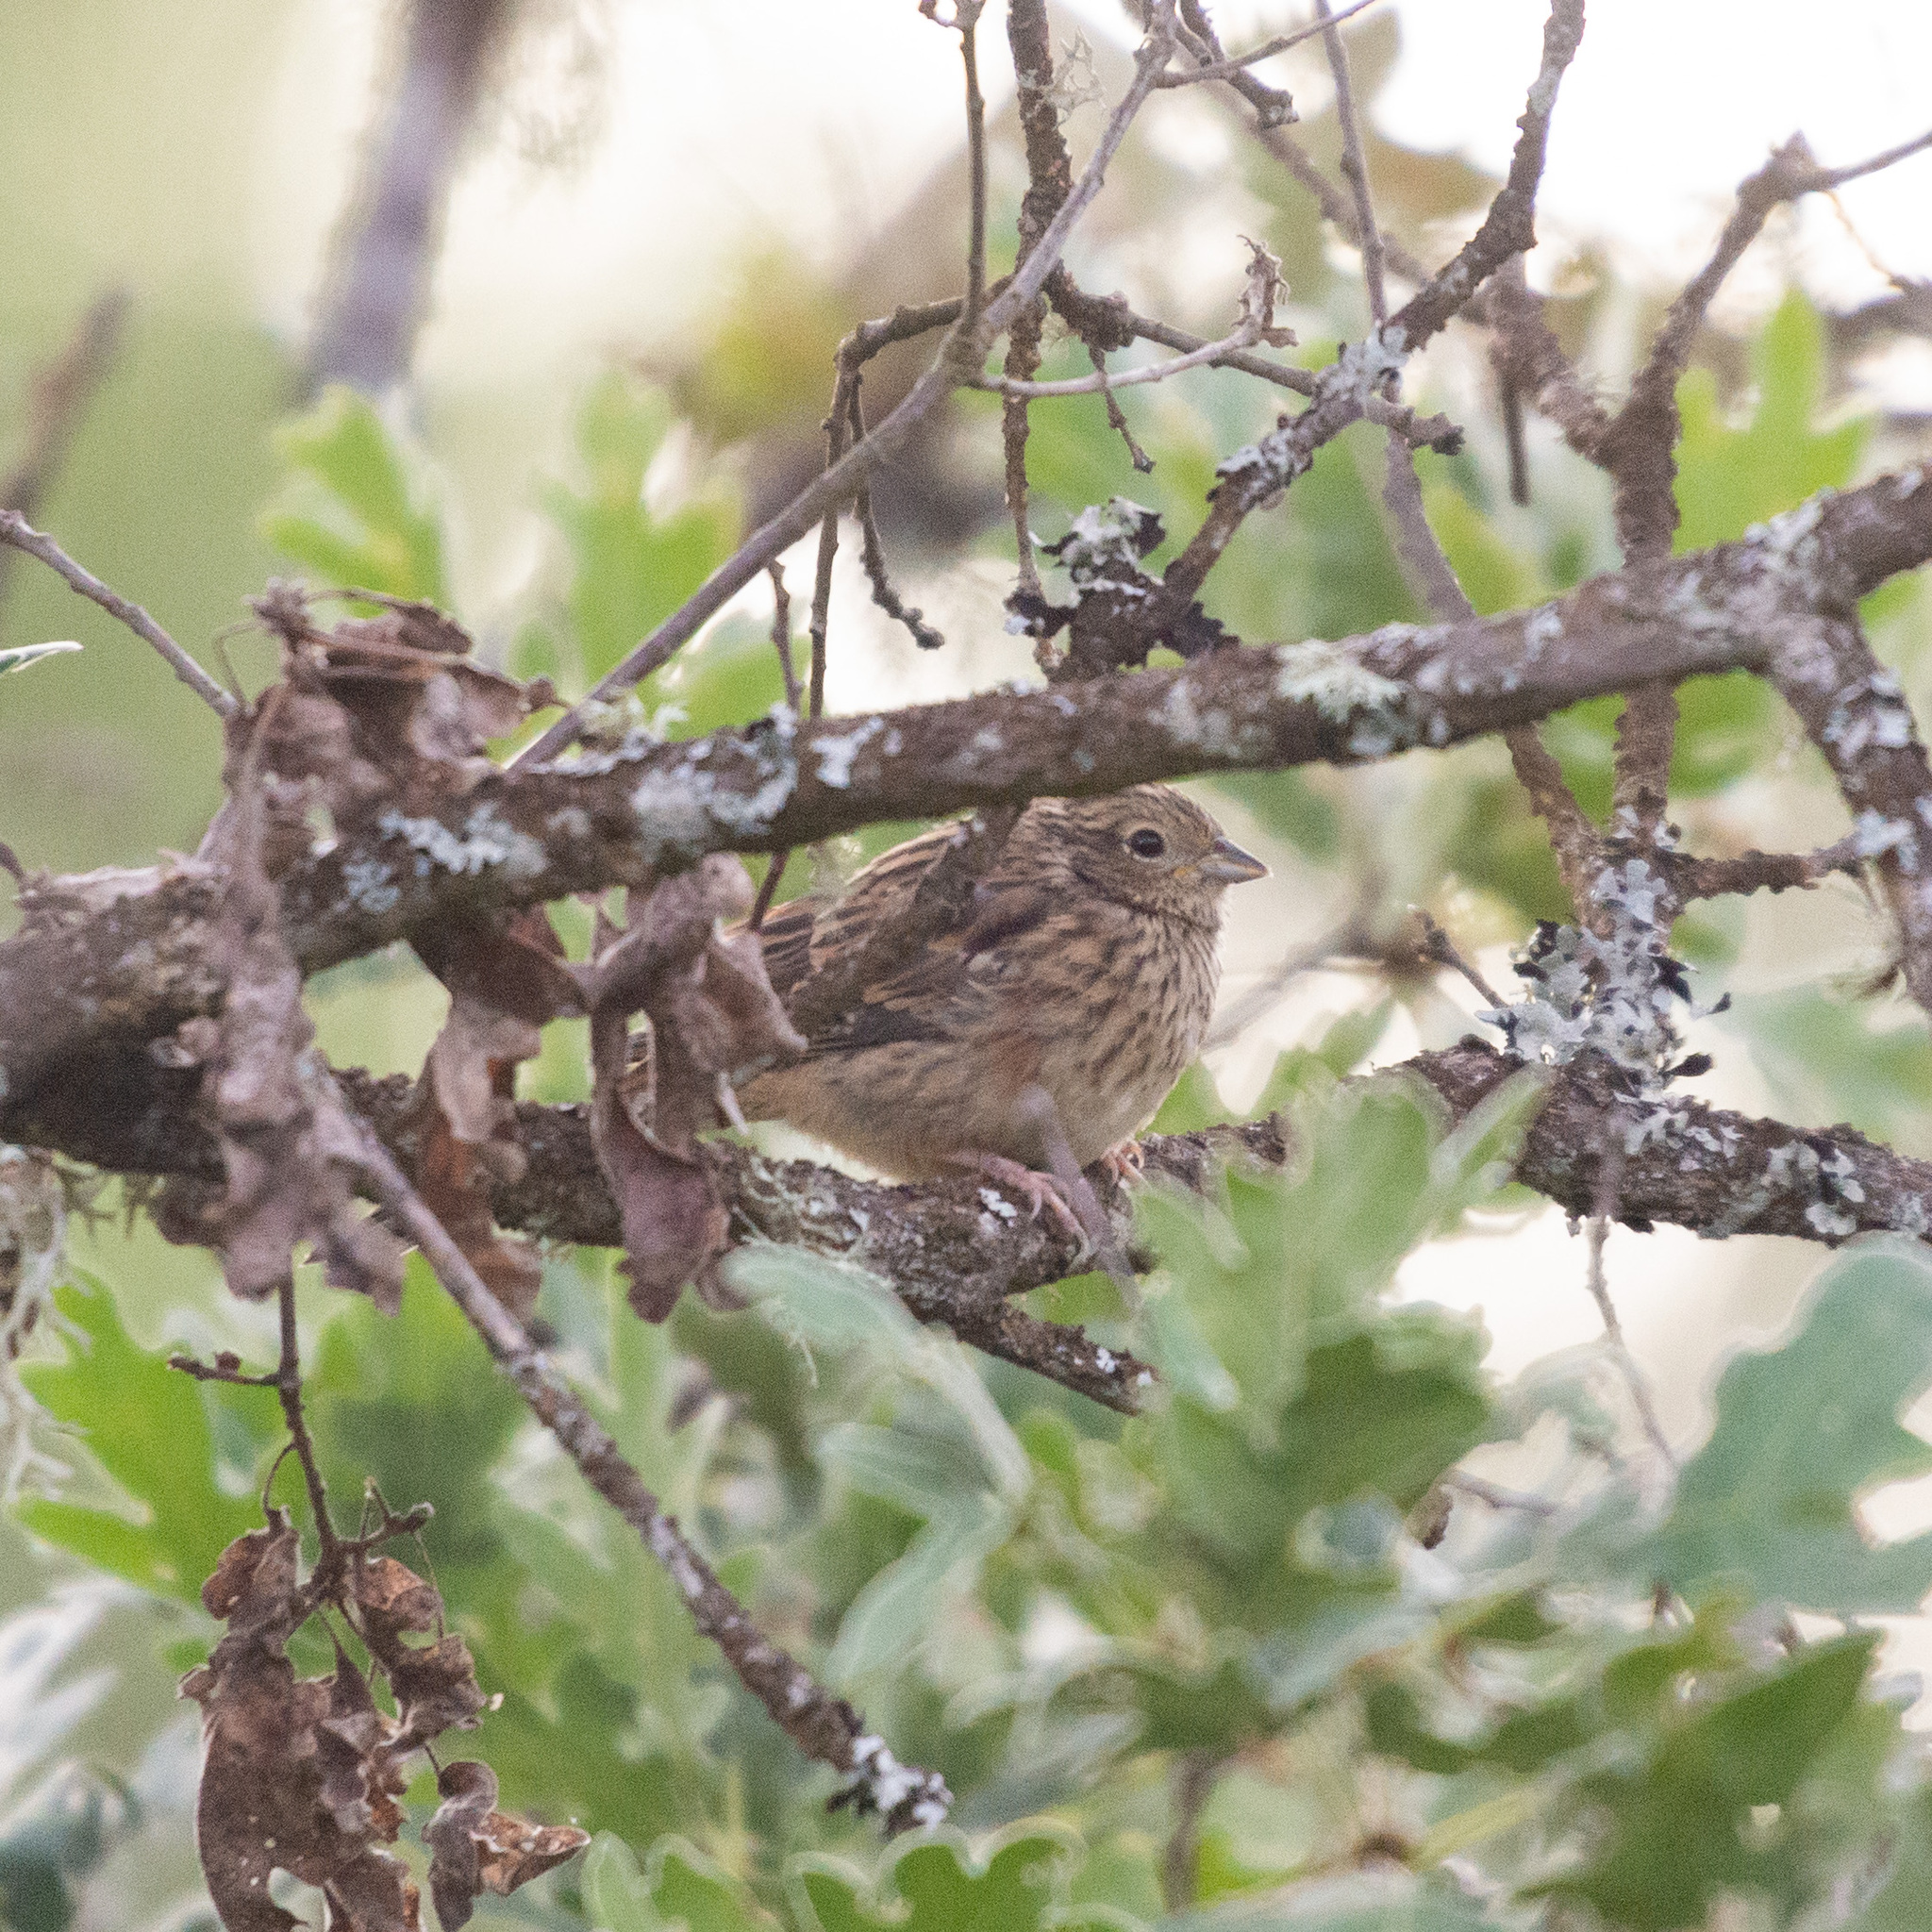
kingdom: Animalia
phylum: Chordata
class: Aves
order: Passeriformes
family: Emberizidae
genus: Emberiza
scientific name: Emberiza cia
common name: Rock bunting
